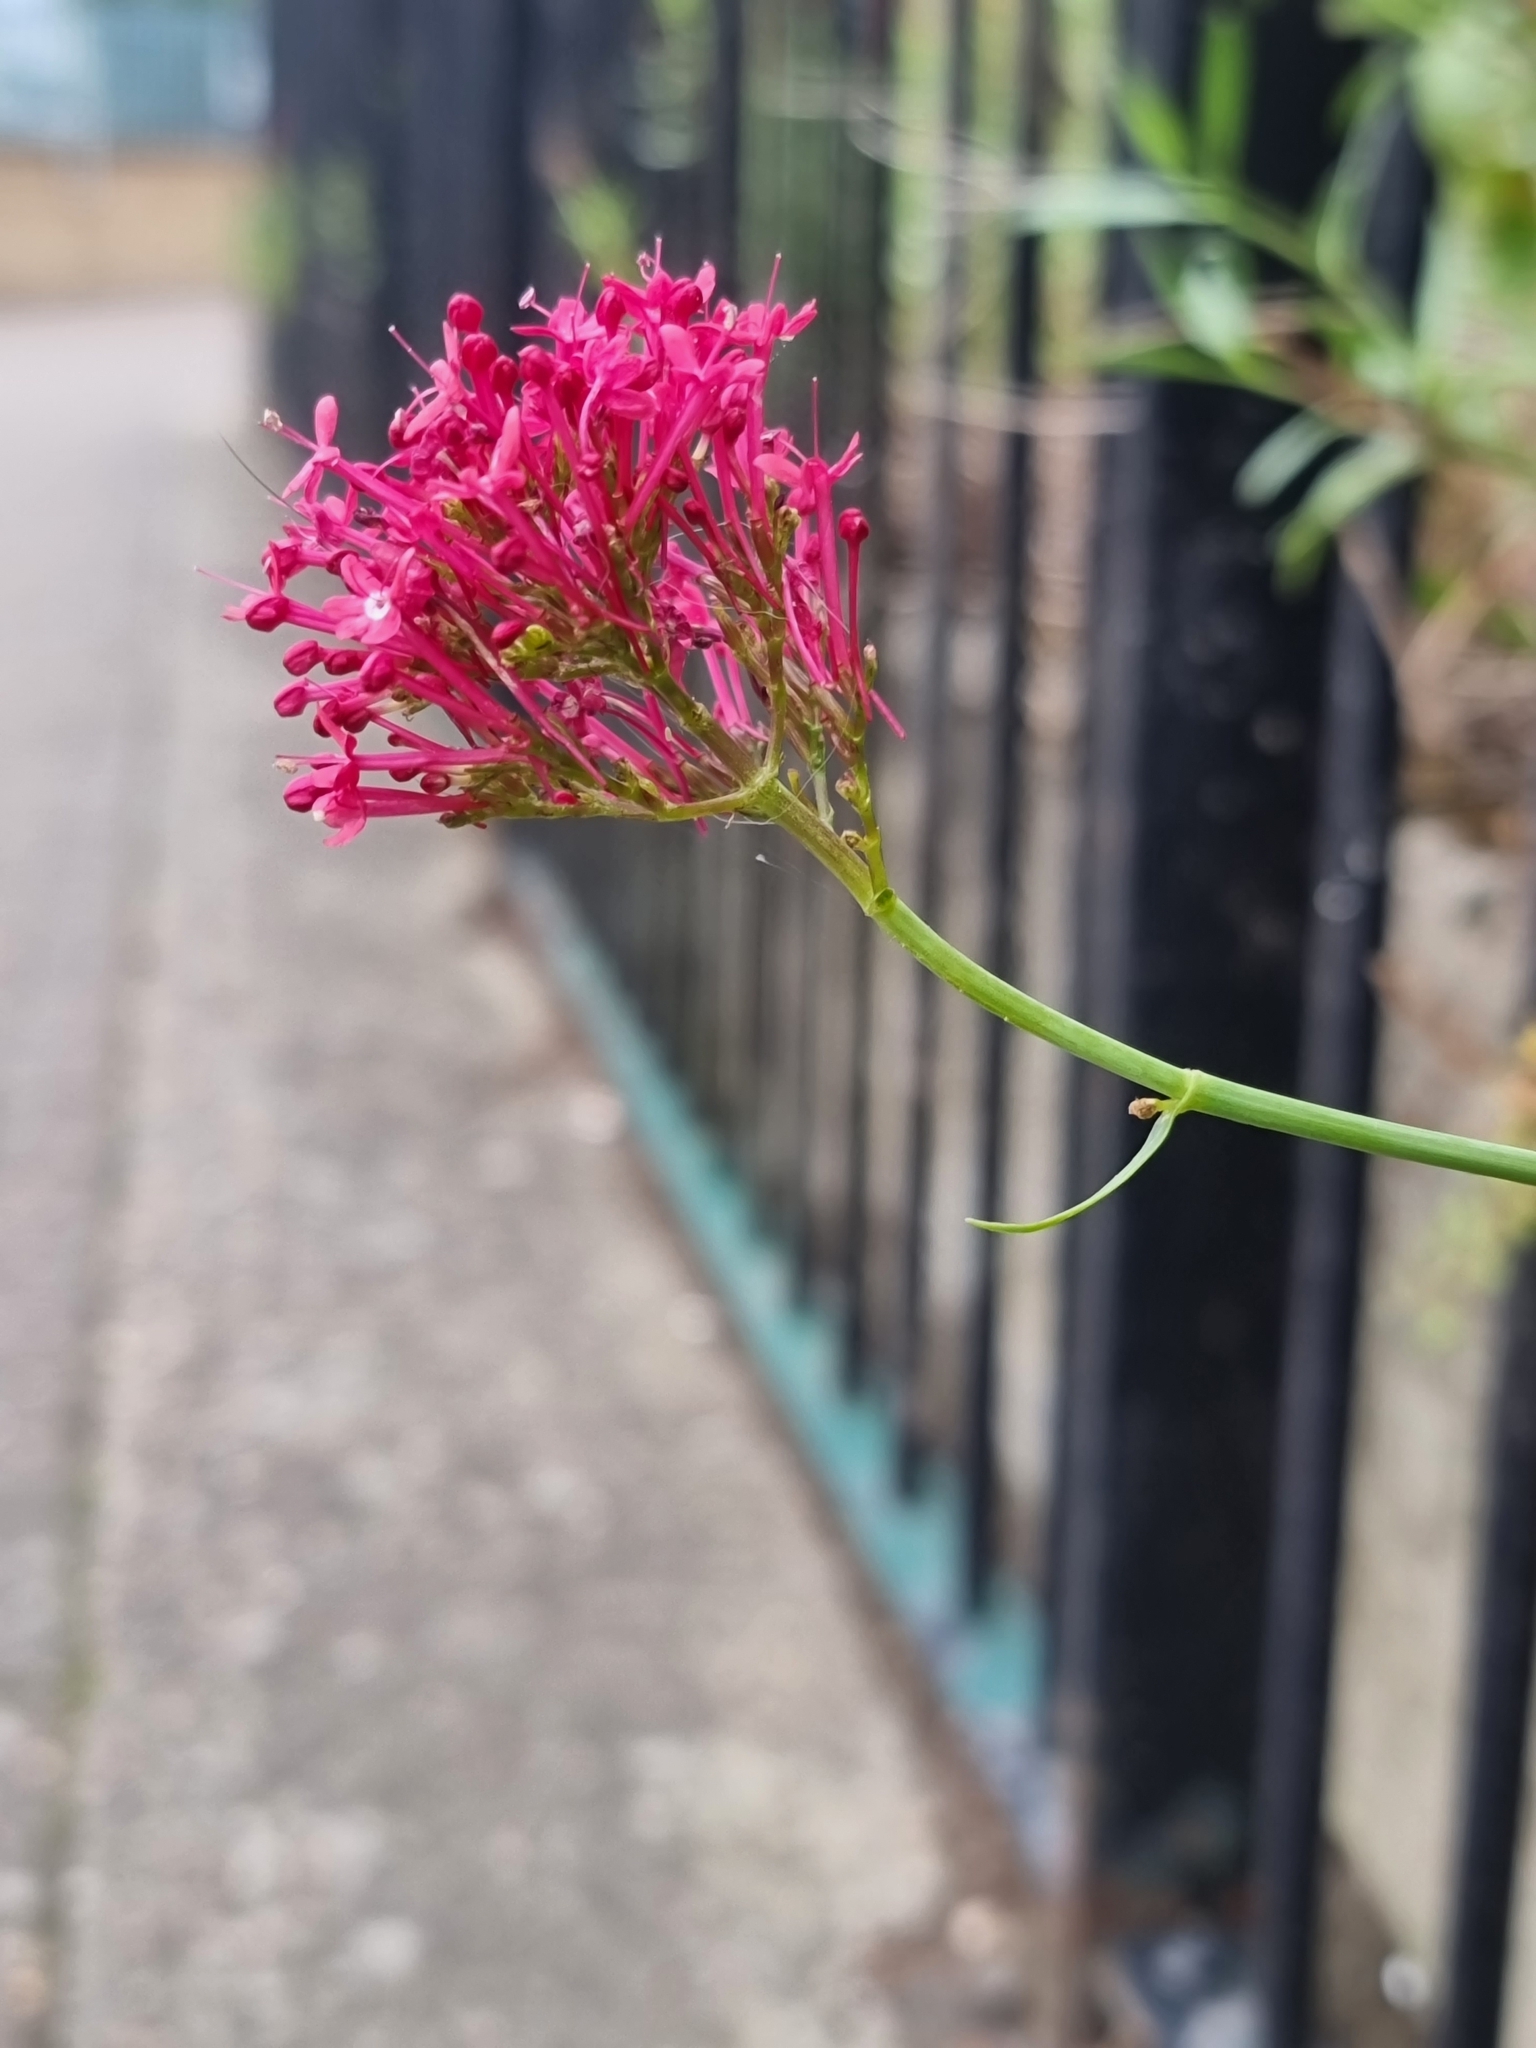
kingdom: Plantae
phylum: Tracheophyta
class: Magnoliopsida
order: Dipsacales
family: Caprifoliaceae
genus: Centranthus
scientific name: Centranthus ruber
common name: Red valerian
